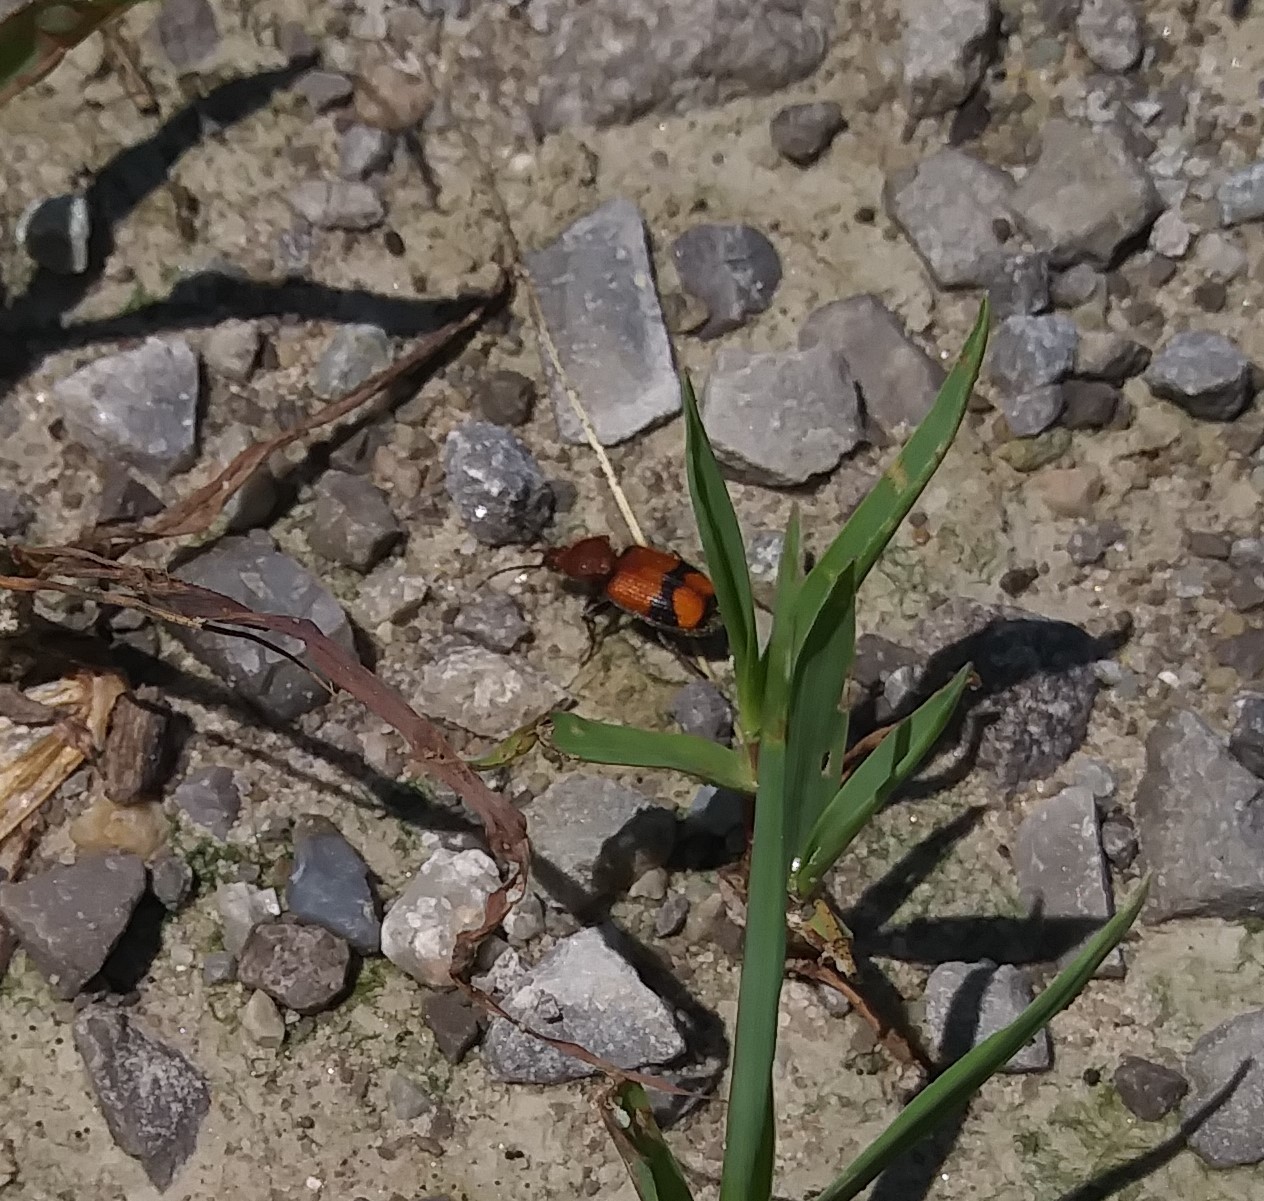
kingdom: Animalia
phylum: Arthropoda
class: Insecta
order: Coleoptera
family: Carabidae
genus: Panagaeus
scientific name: Panagaeus fasciatus
